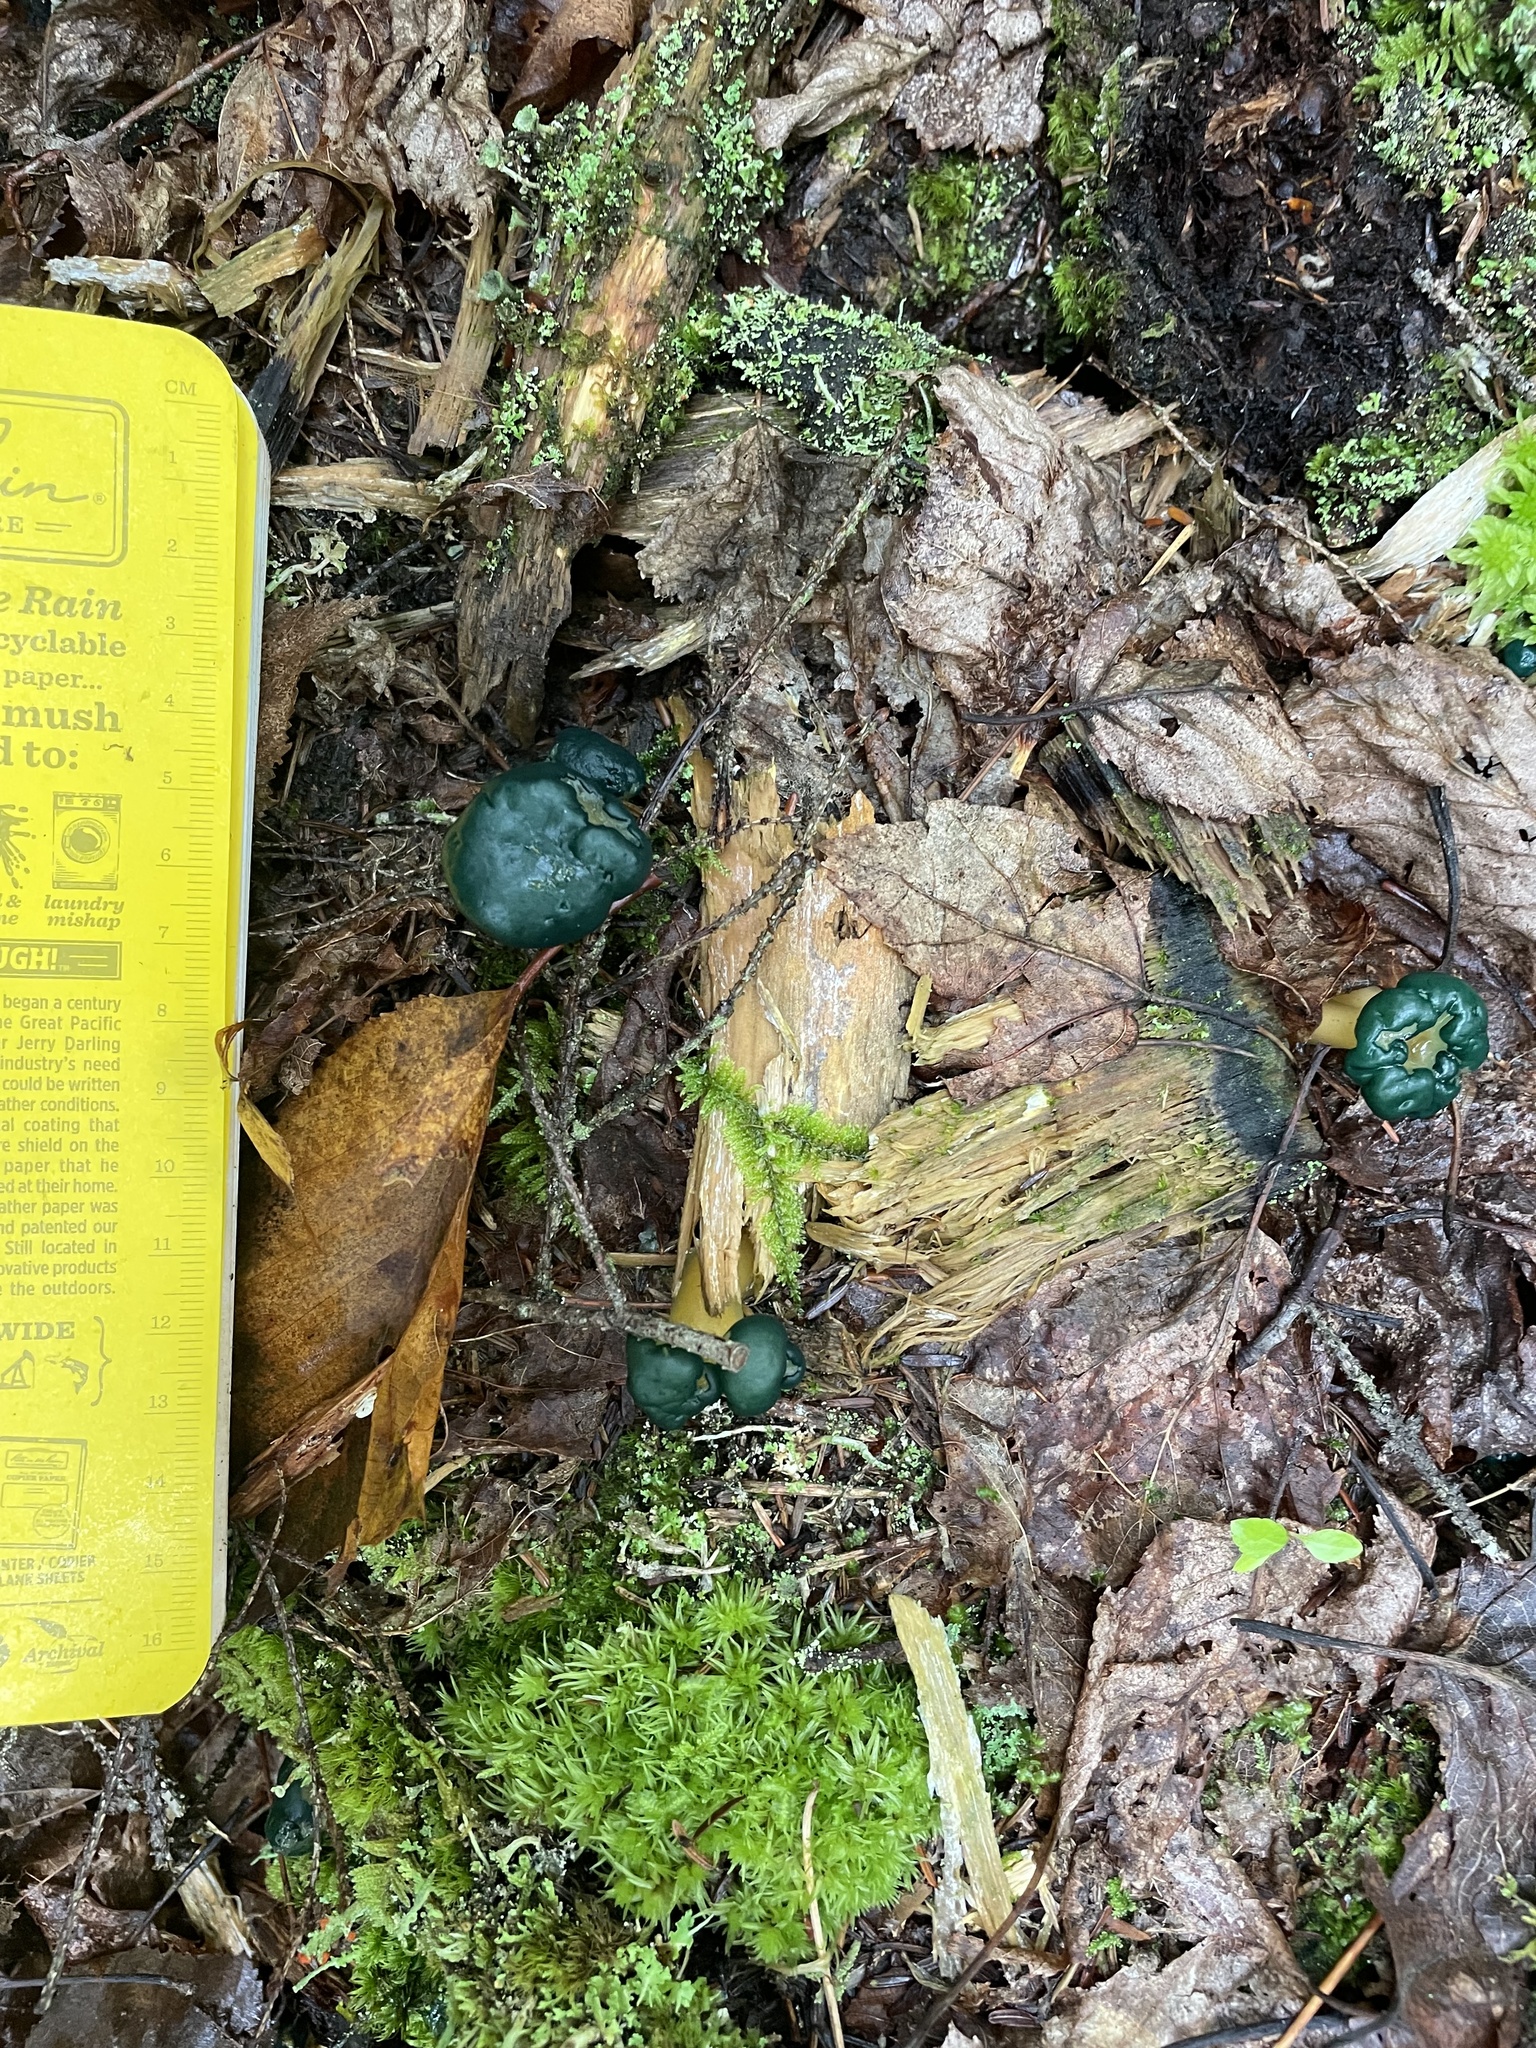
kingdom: Fungi
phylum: Ascomycota
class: Leotiomycetes
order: Leotiales
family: Leotiaceae
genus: Leotia
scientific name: Leotia lubrica
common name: Jellybaby
